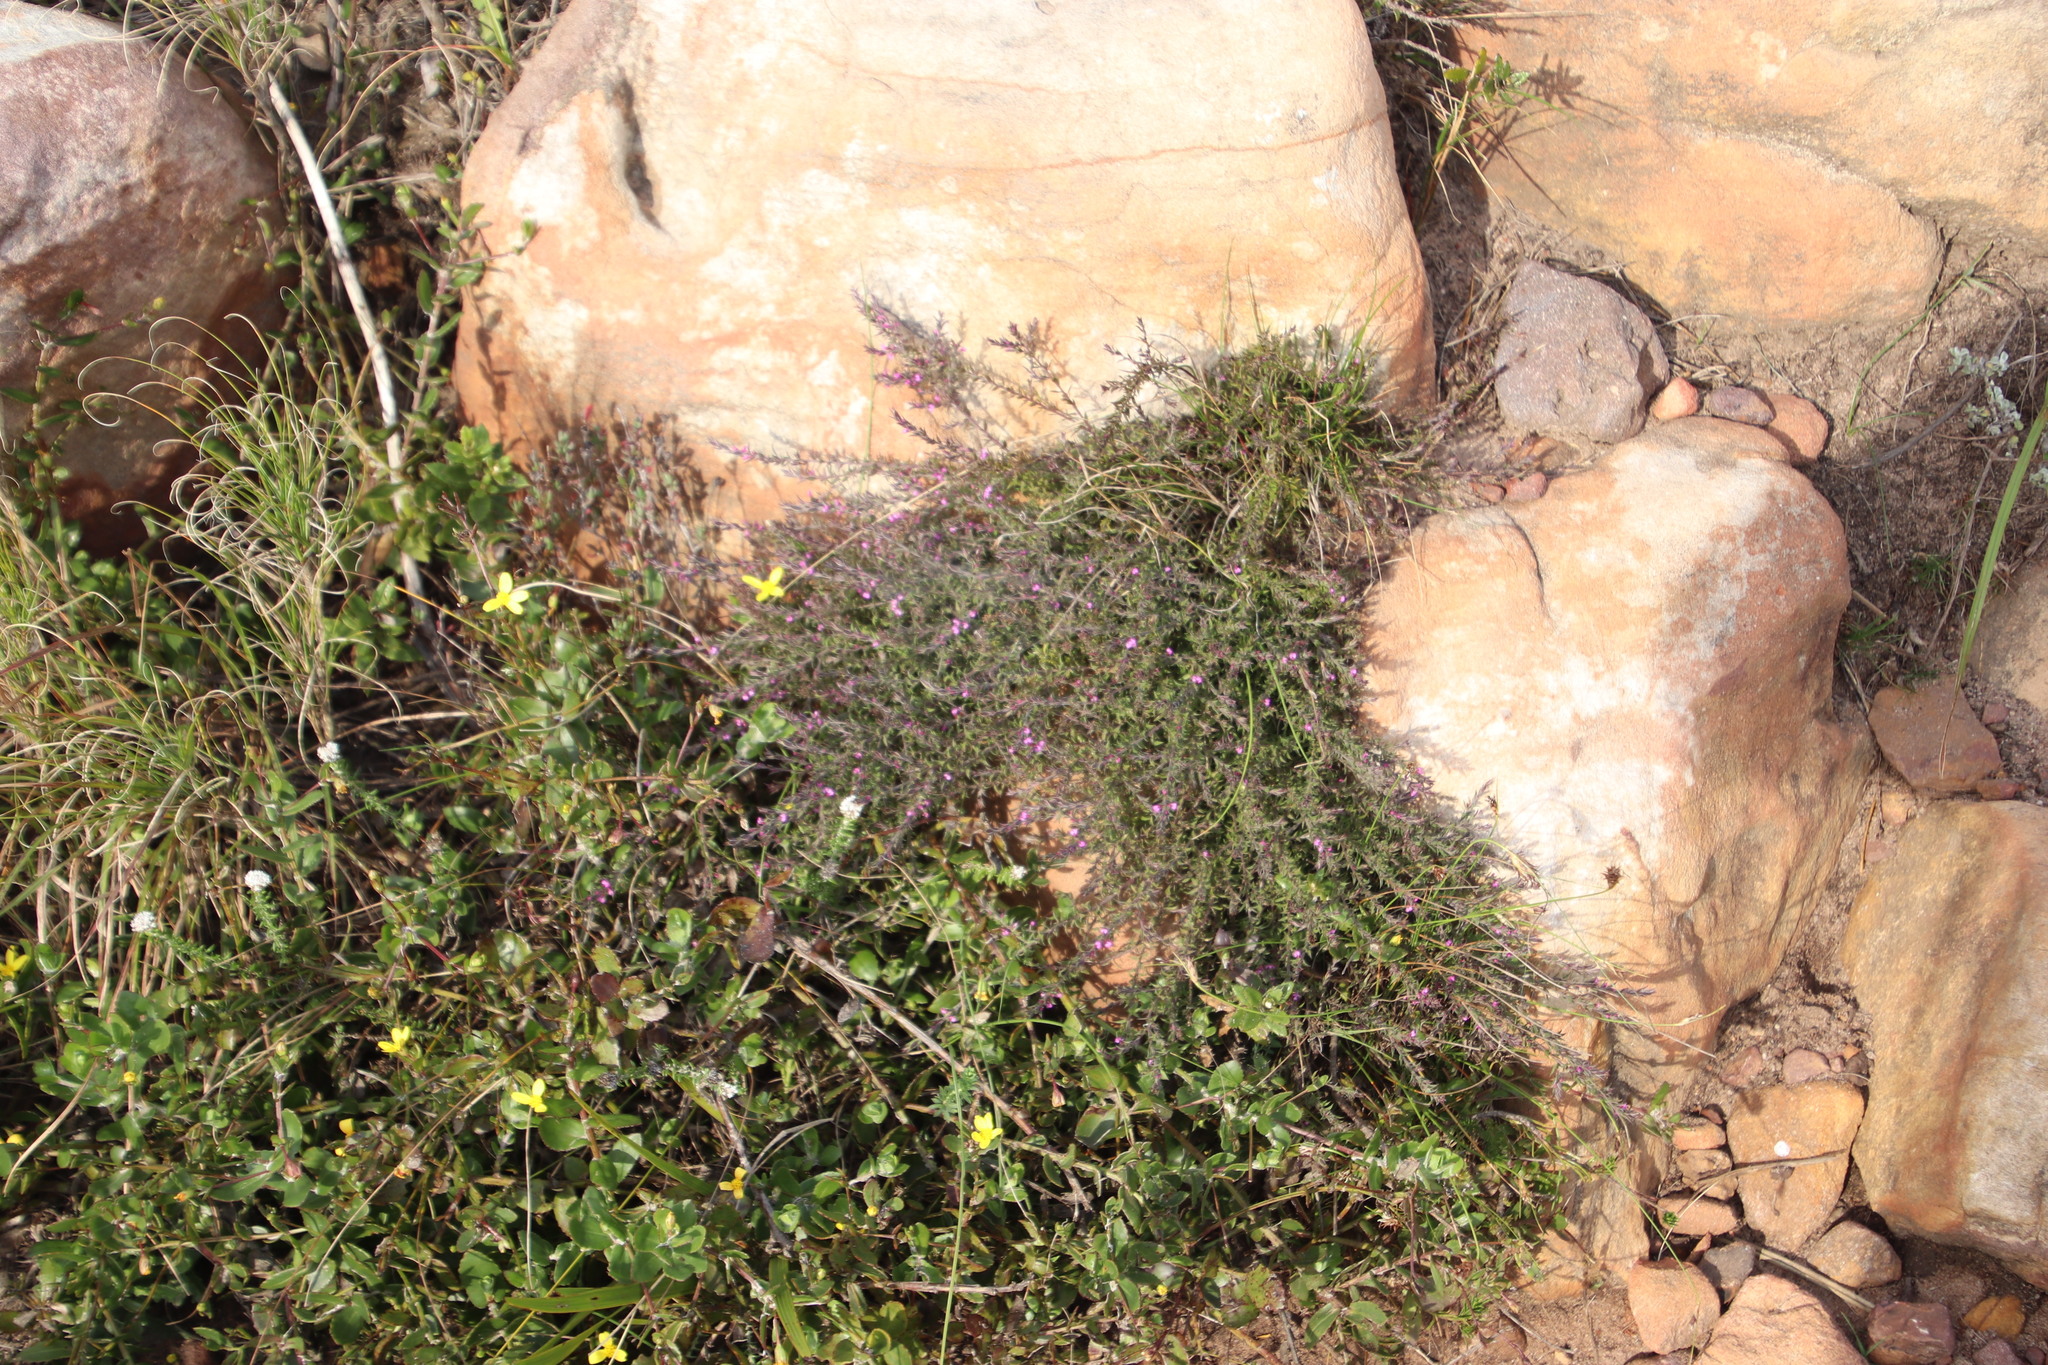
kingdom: Plantae
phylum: Tracheophyta
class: Magnoliopsida
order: Fabales
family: Polygalaceae
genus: Muraltia
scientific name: Muraltia stipulacea
